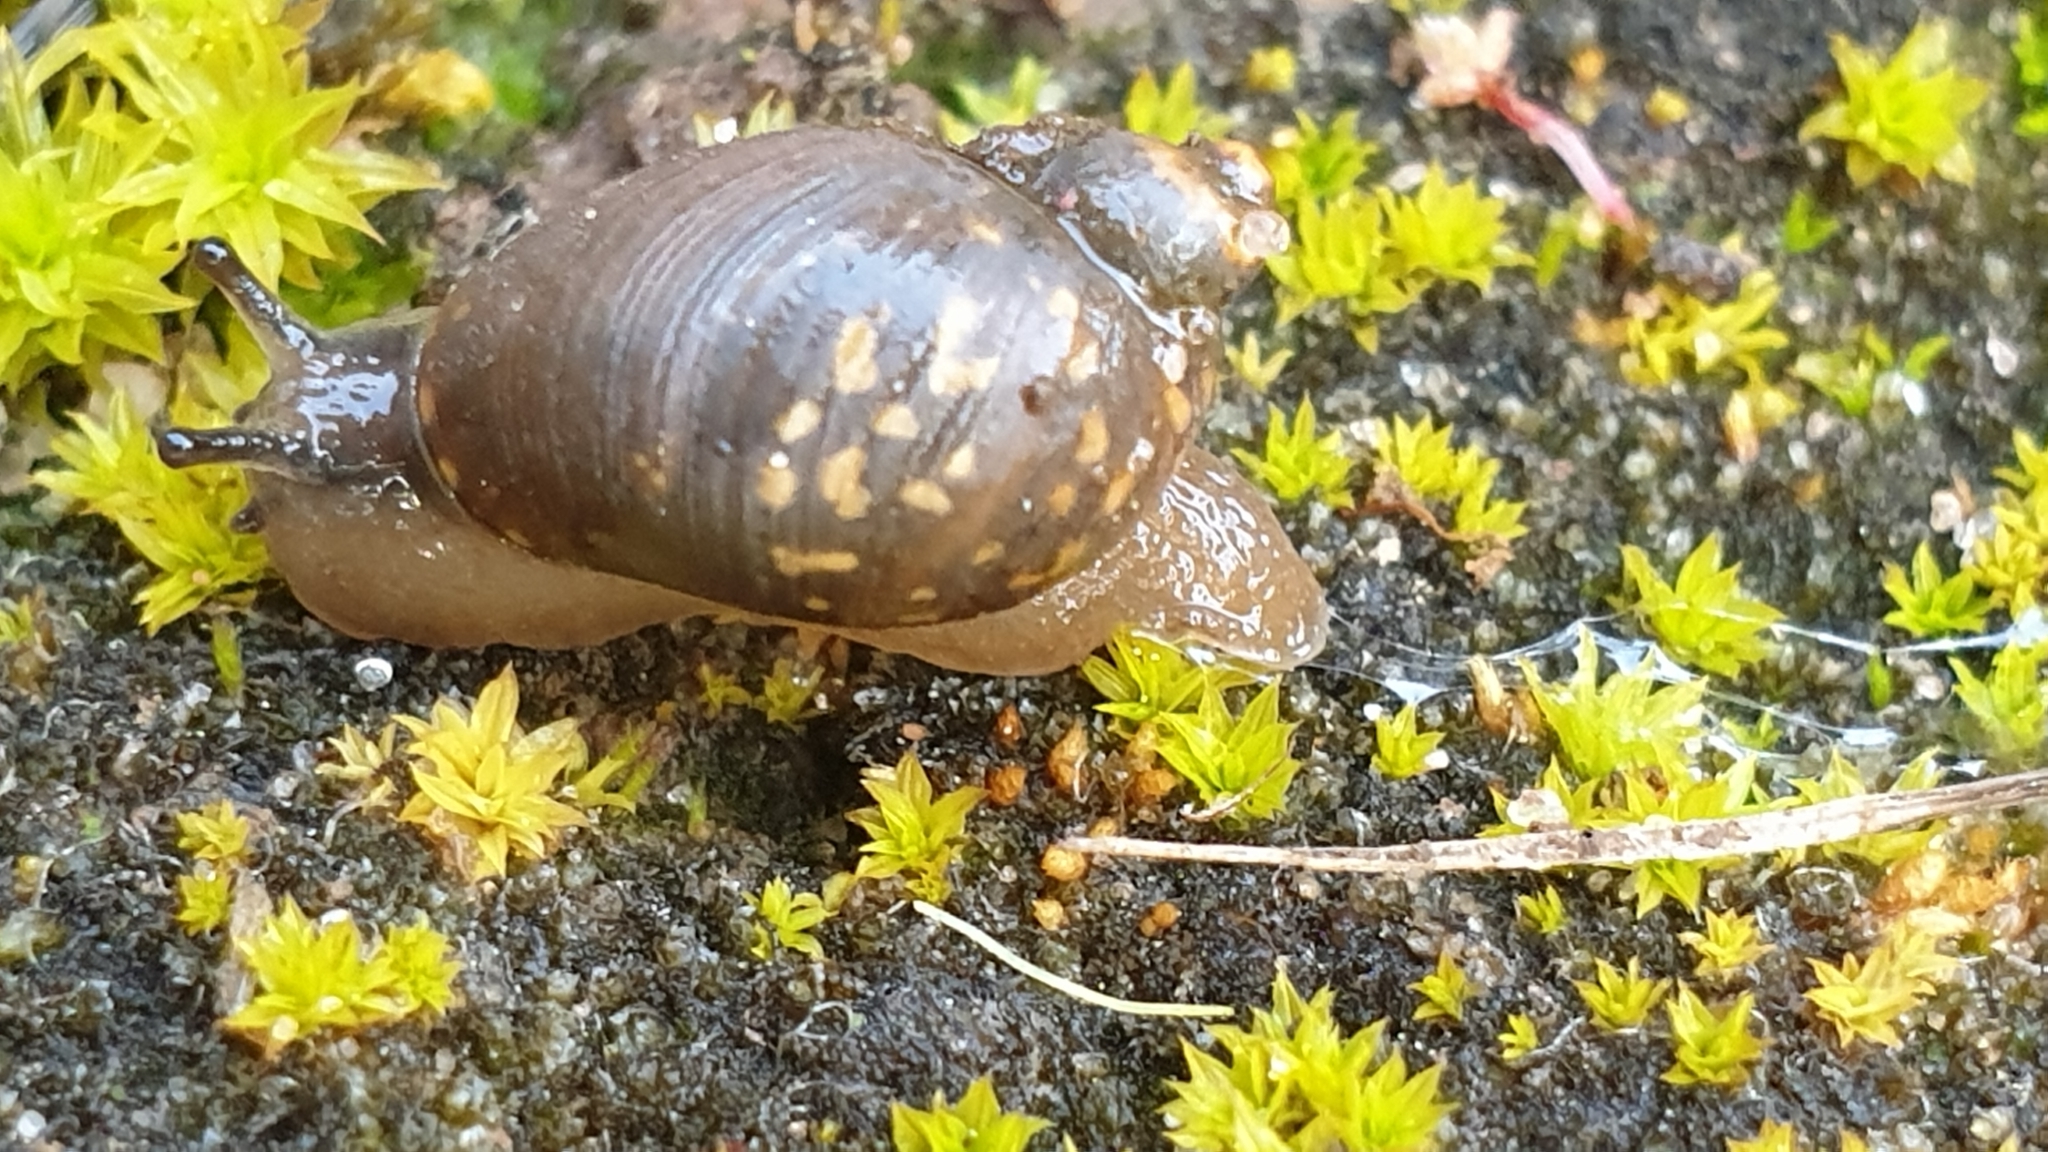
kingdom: Animalia
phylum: Mollusca
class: Gastropoda
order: Stylommatophora
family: Succineidae
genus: Succinea
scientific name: Succinea australis
